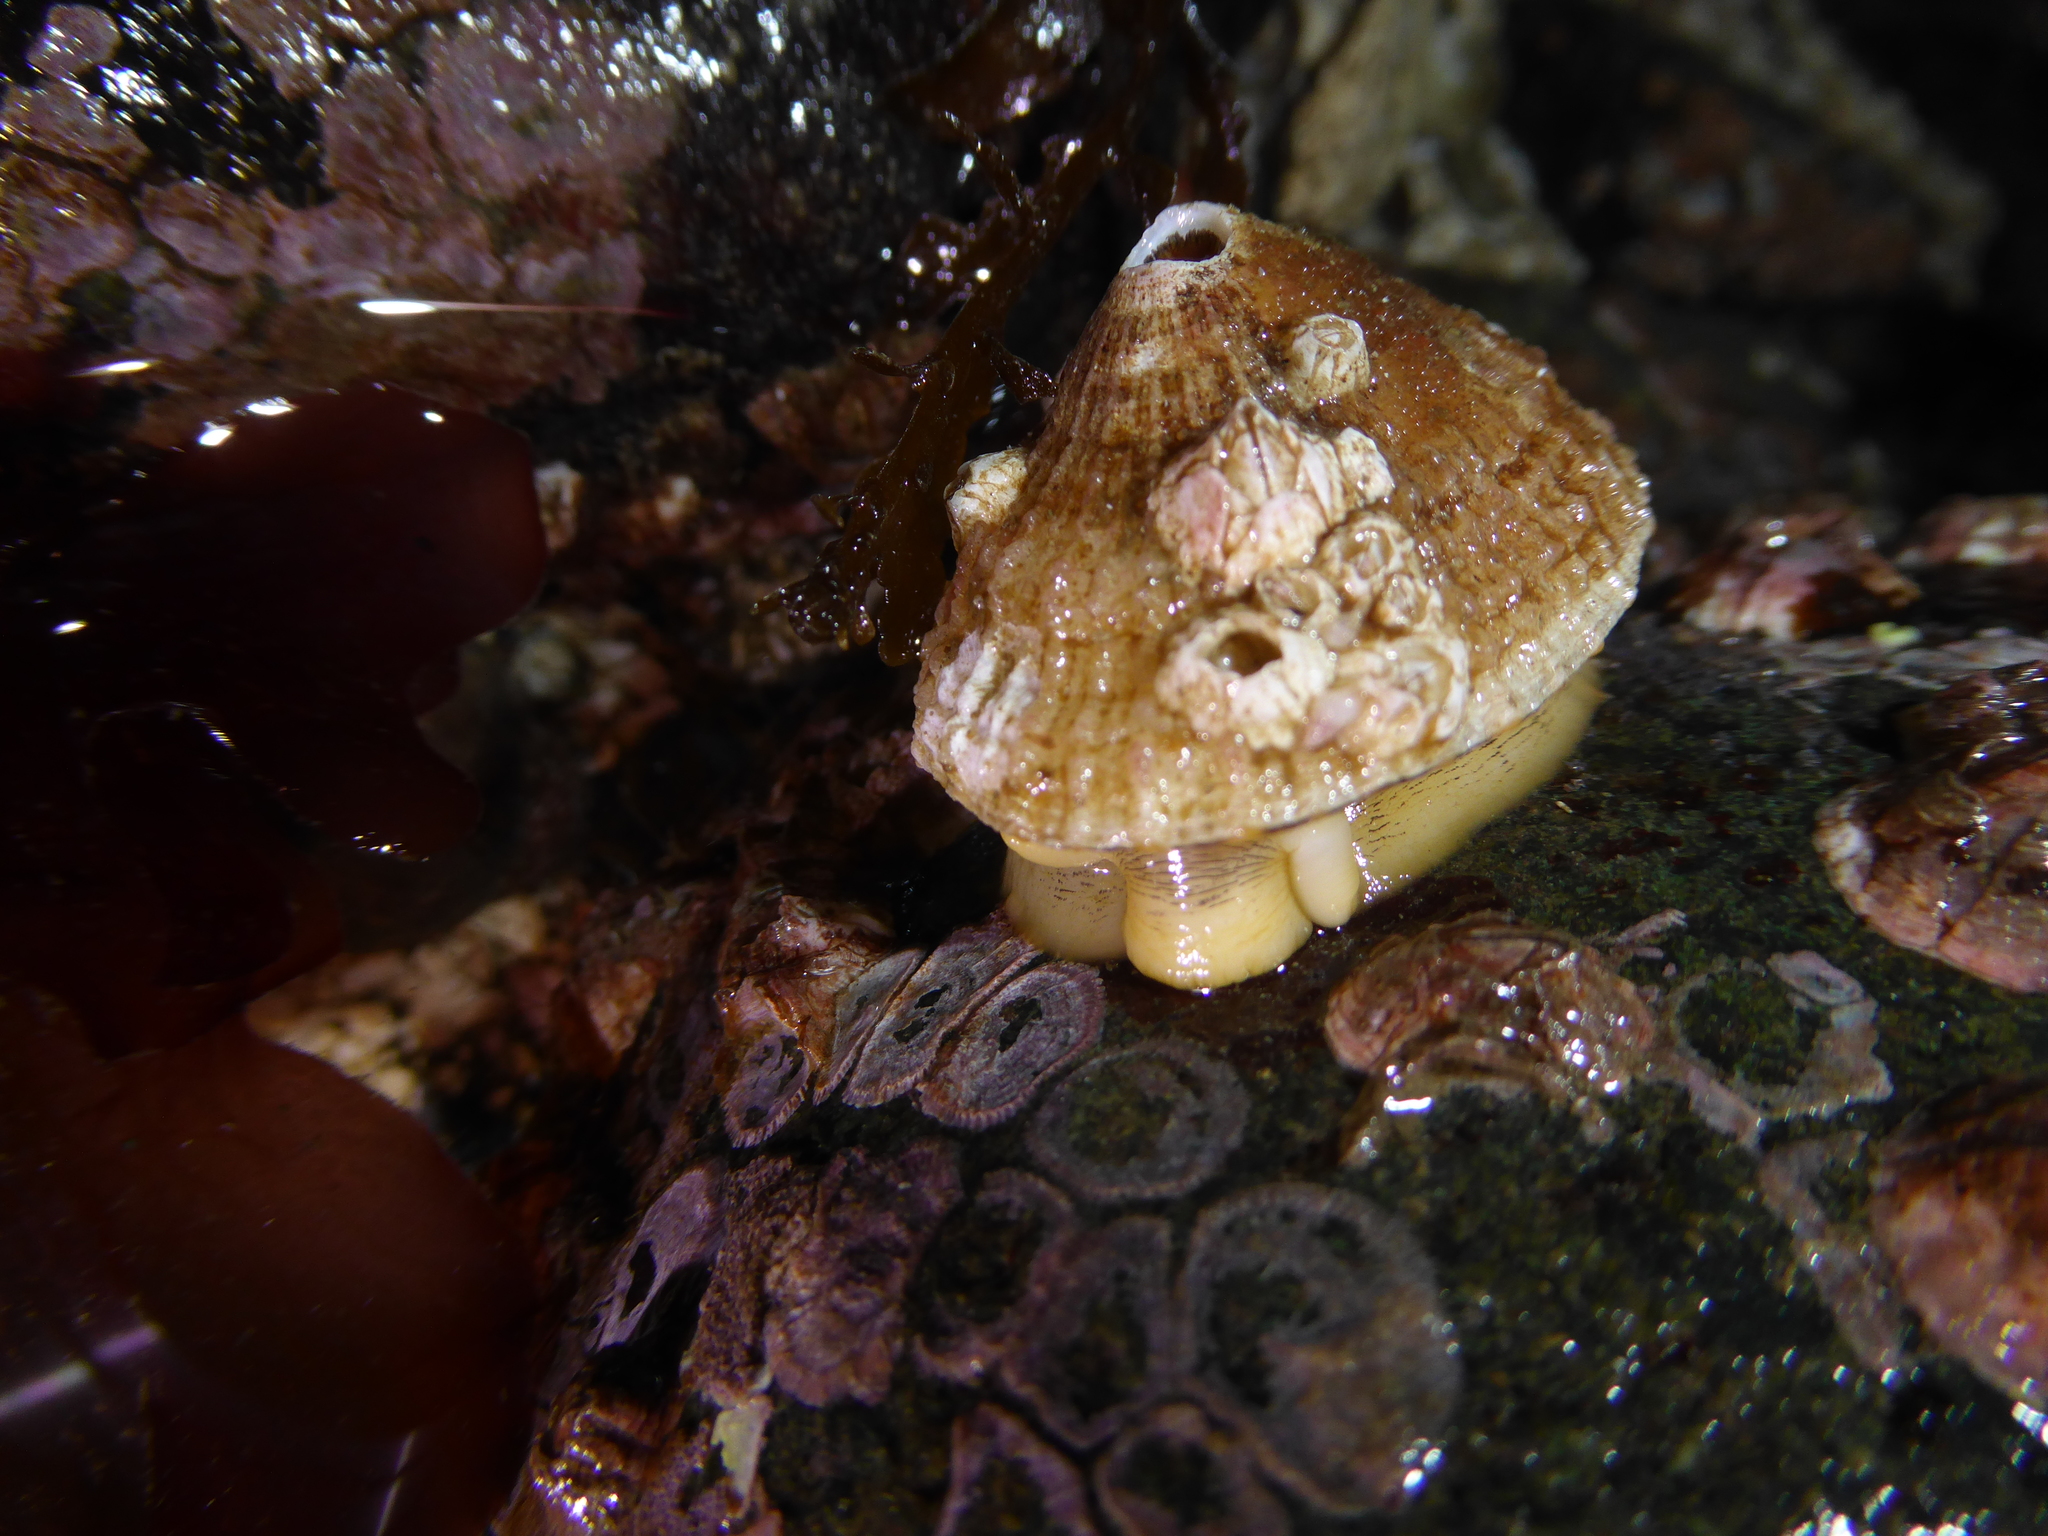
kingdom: Animalia
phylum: Mollusca
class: Gastropoda
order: Lepetellida
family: Fissurellidae
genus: Diodora
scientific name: Diodora aspera
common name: Rough keyhole limpet
